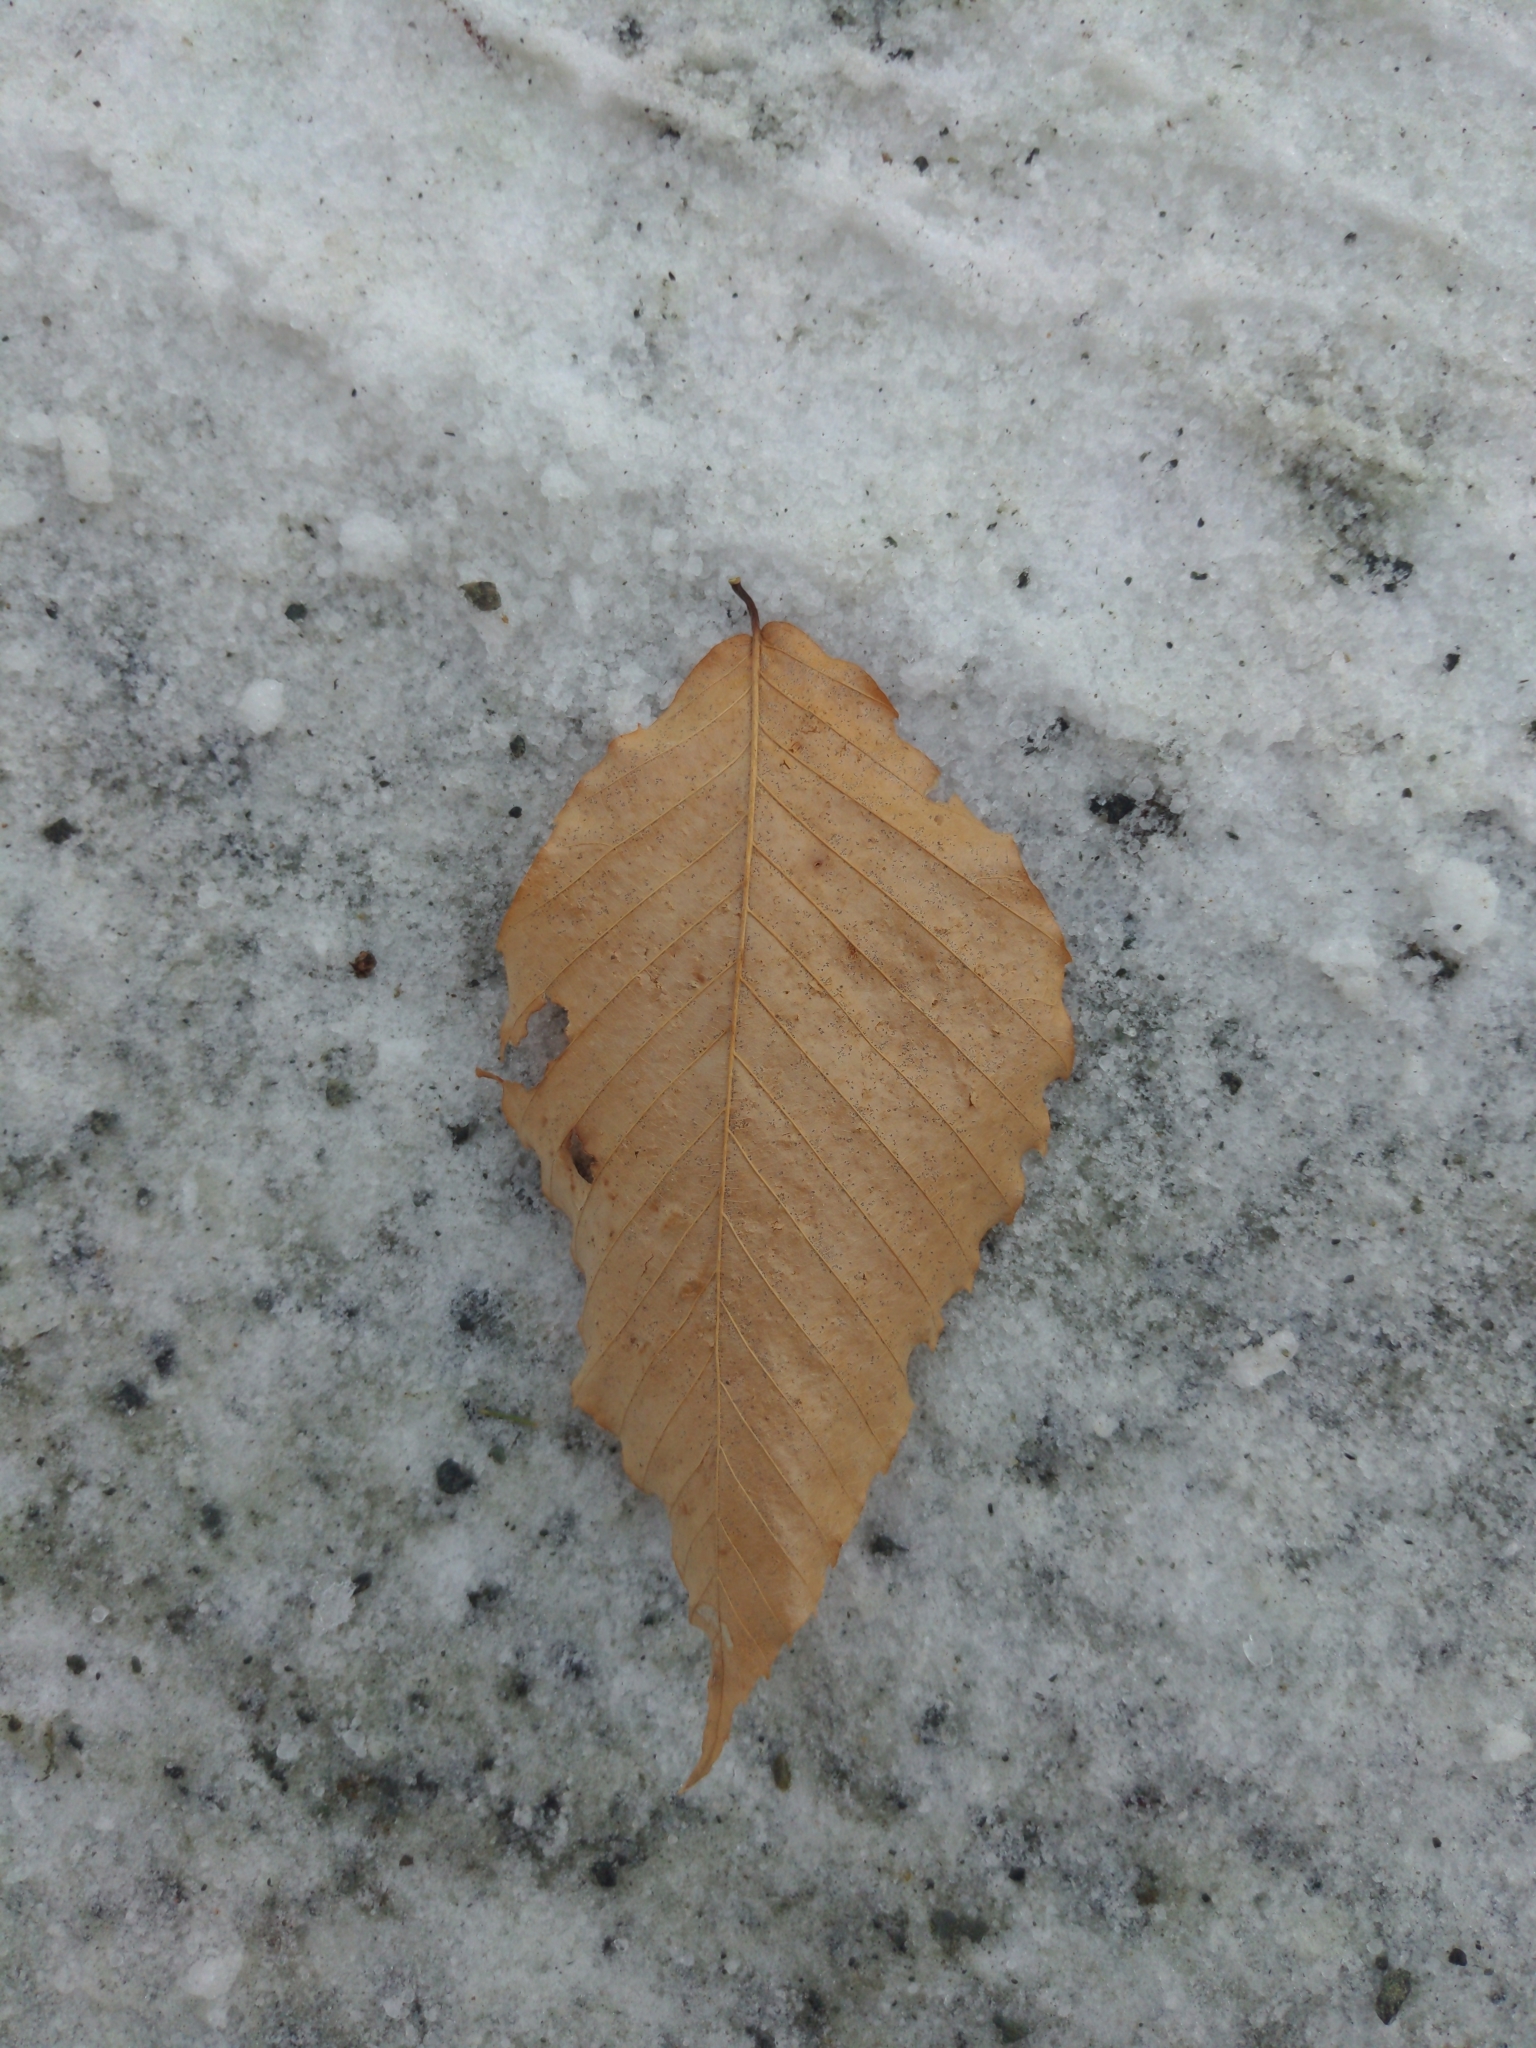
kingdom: Plantae
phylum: Tracheophyta
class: Magnoliopsida
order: Fagales
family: Fagaceae
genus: Fagus
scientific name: Fagus grandifolia
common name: American beech
